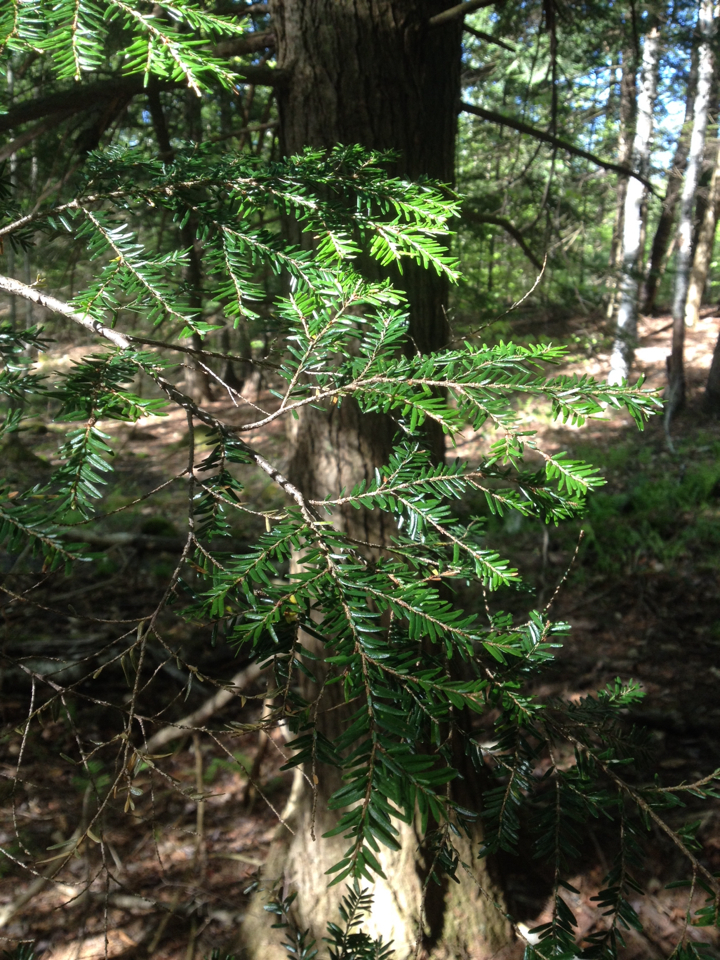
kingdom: Plantae
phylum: Tracheophyta
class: Pinopsida
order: Pinales
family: Pinaceae
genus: Tsuga
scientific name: Tsuga canadensis
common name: Eastern hemlock
